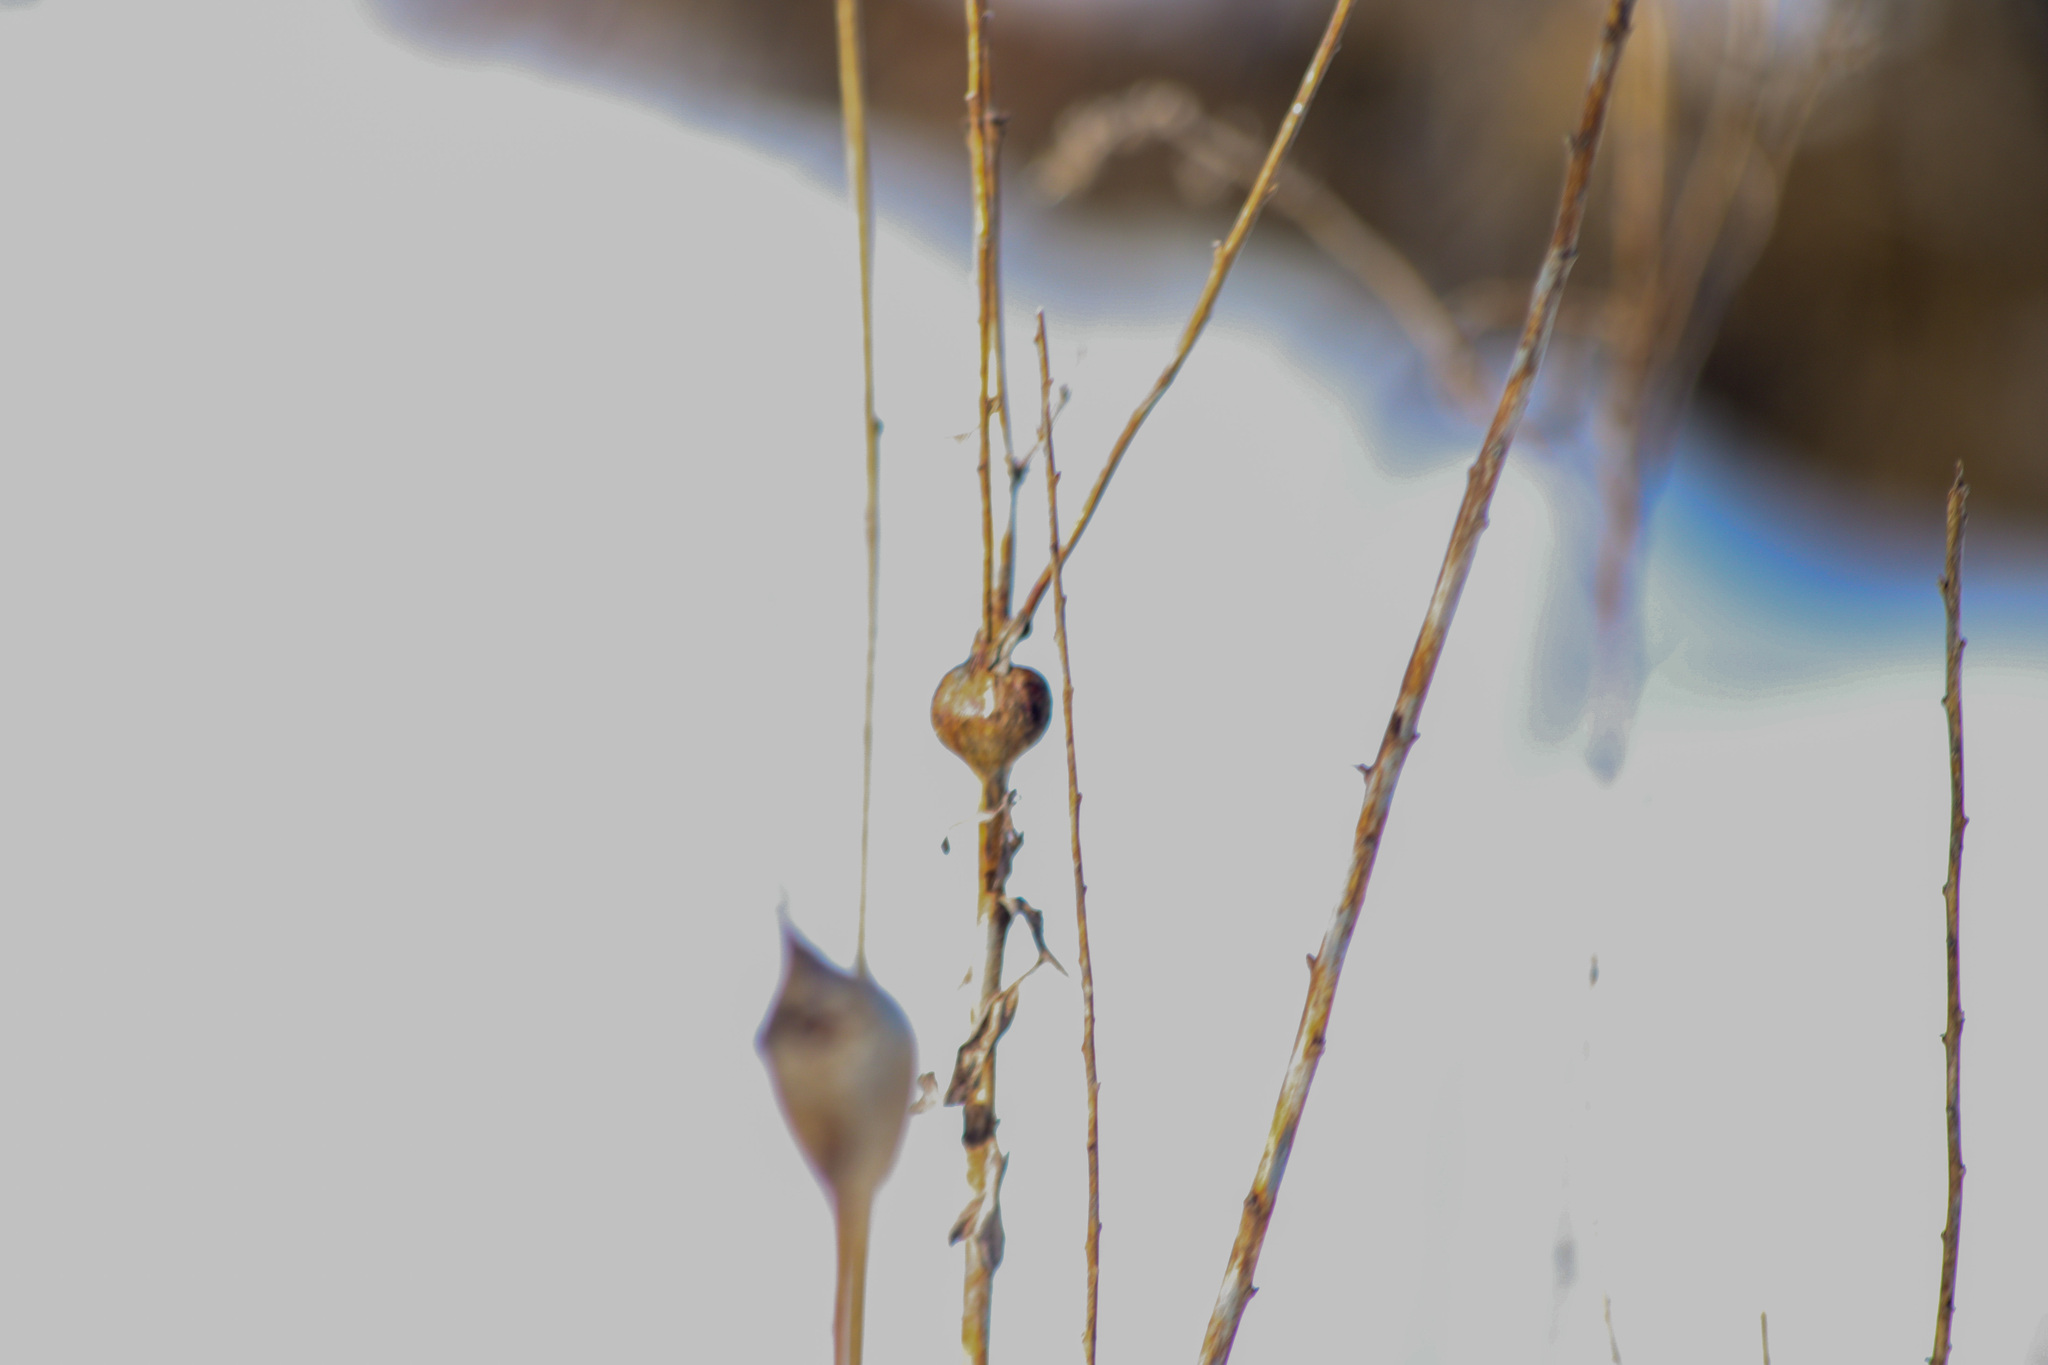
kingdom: Animalia
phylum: Arthropoda
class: Insecta
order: Diptera
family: Tephritidae
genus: Eurosta
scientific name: Eurosta solidaginis
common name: Goldenrod gall fly
